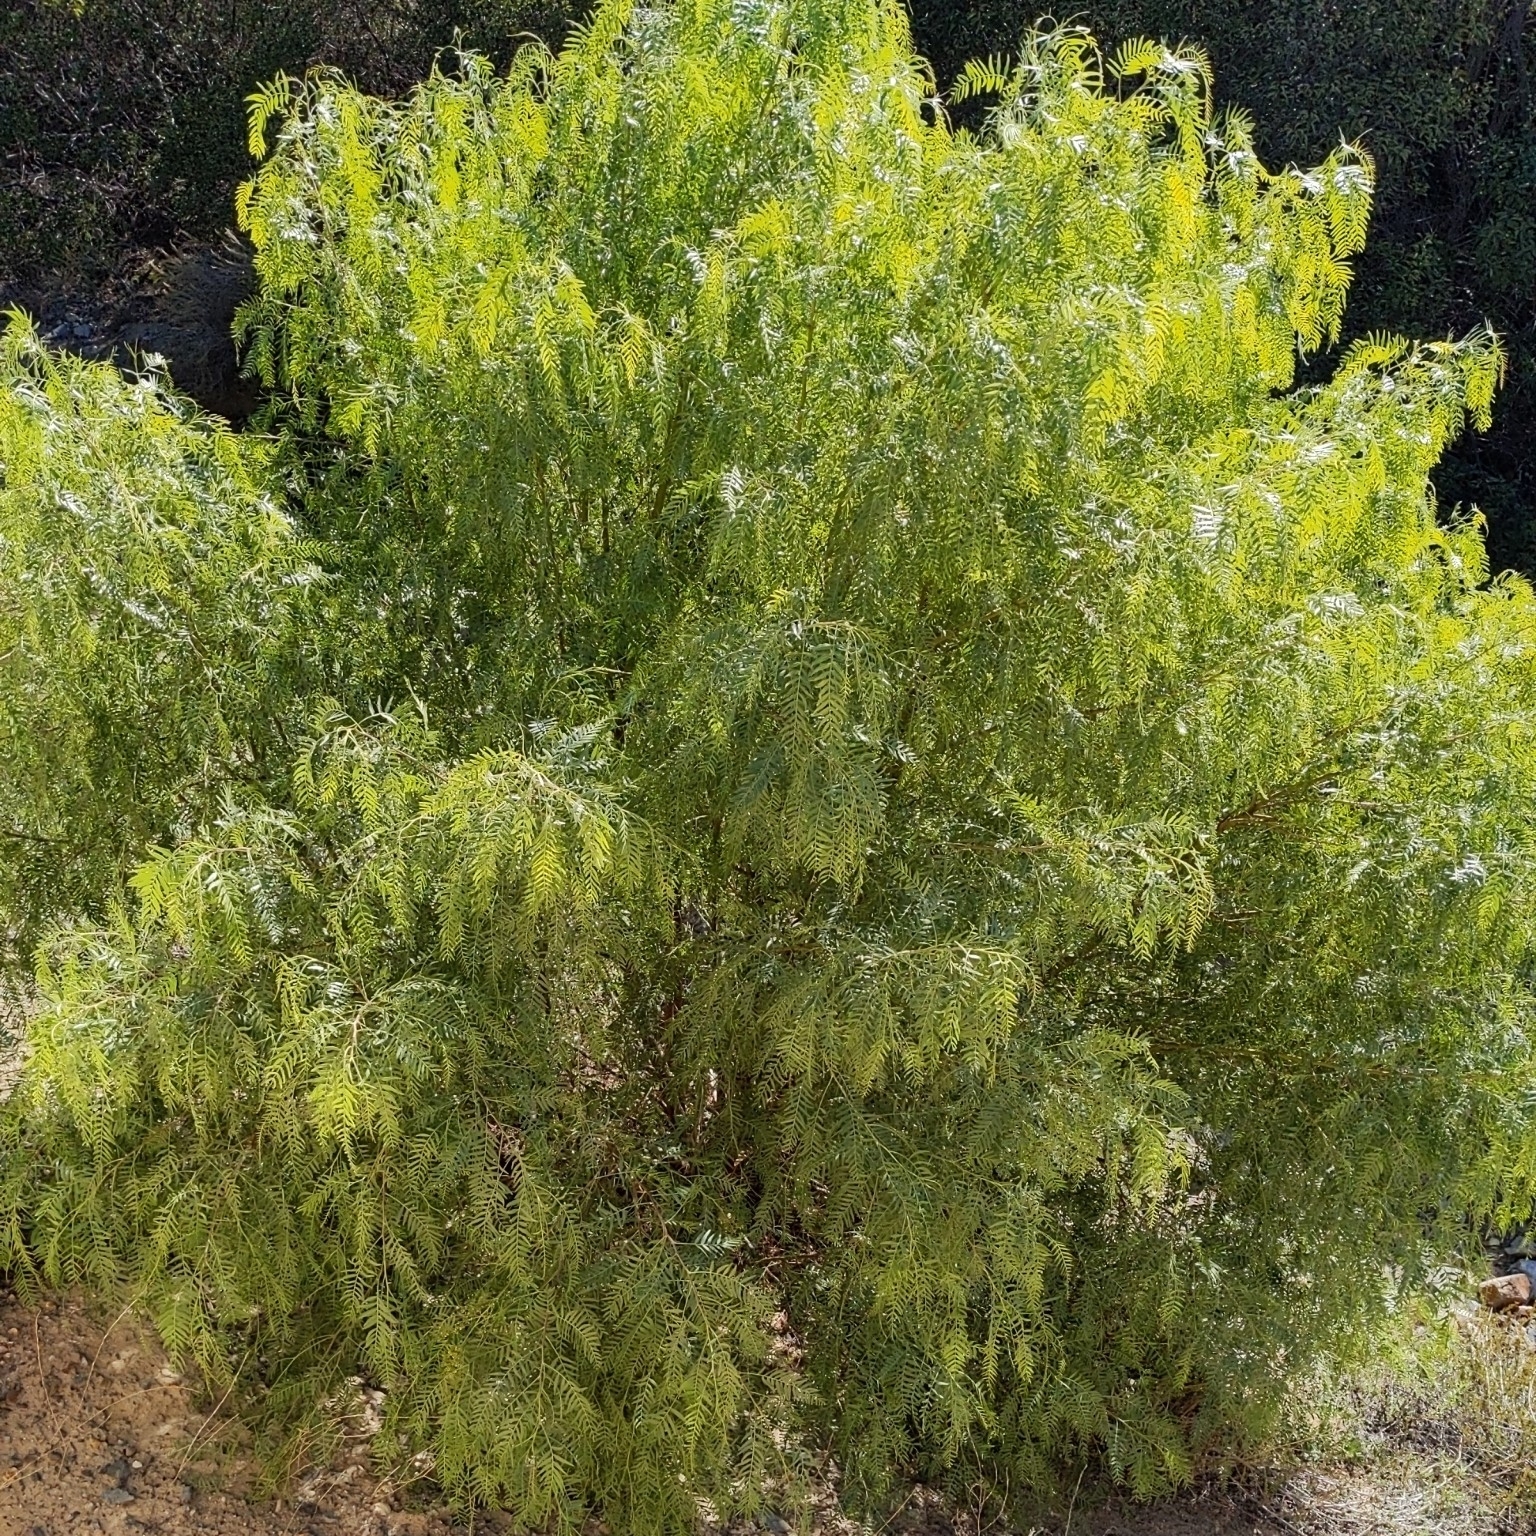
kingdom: Plantae
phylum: Tracheophyta
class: Magnoliopsida
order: Sapindales
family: Anacardiaceae
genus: Schinus
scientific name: Schinus molle
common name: Peruvian peppertree
